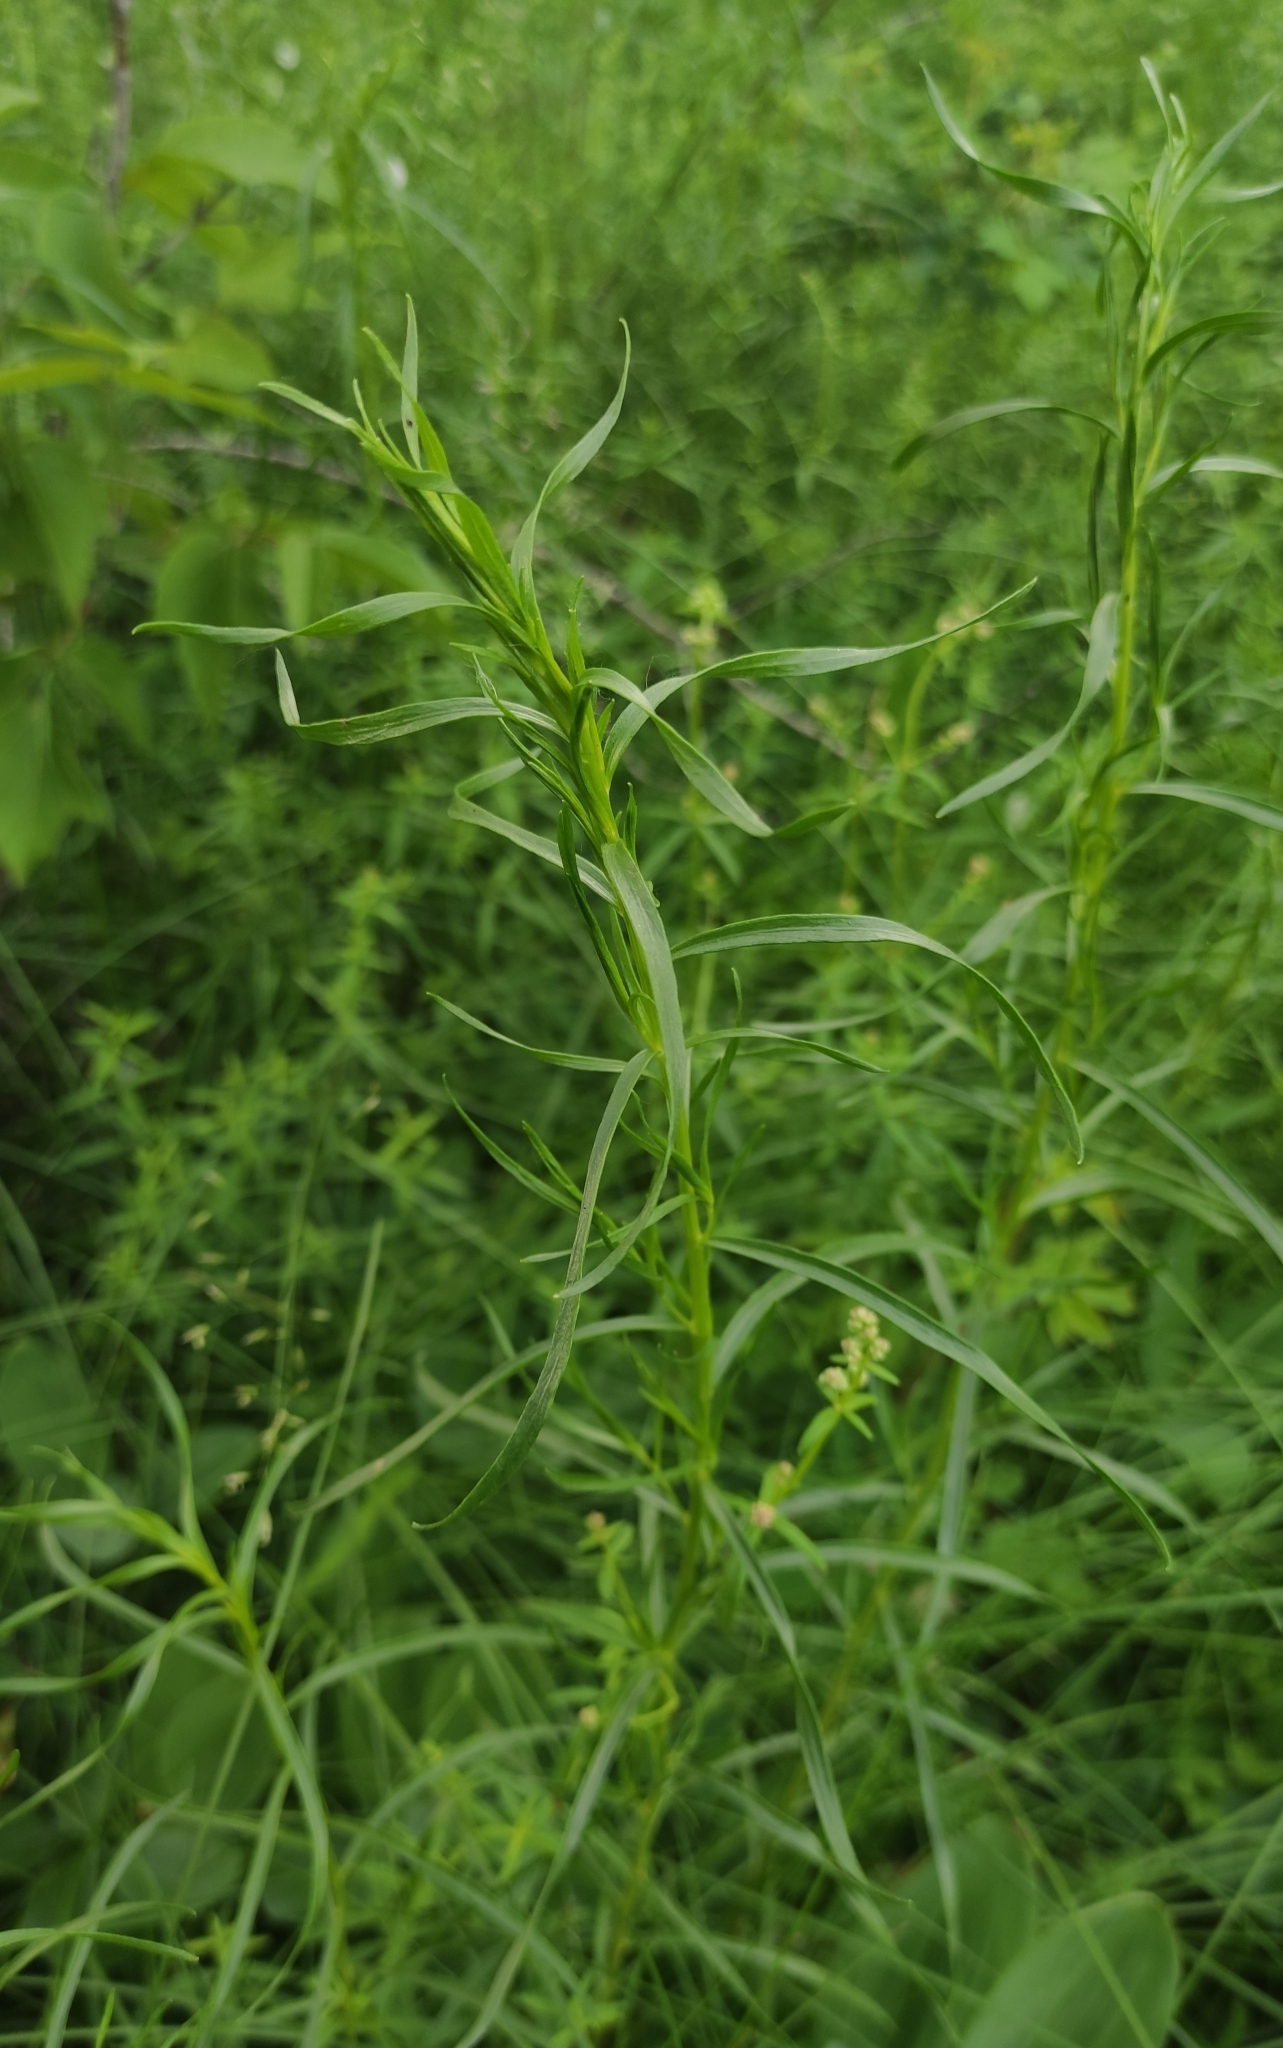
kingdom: Plantae
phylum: Tracheophyta
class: Magnoliopsida
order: Asterales
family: Asteraceae
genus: Artemisia
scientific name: Artemisia dracunculus
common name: Tarragon
